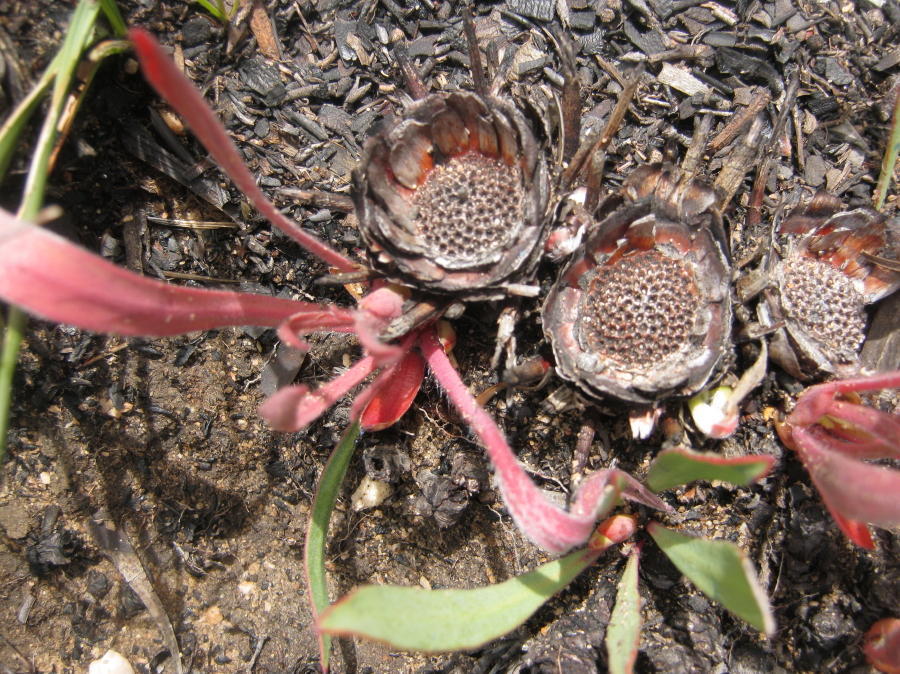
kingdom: Plantae
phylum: Tracheophyta
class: Magnoliopsida
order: Proteales
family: Proteaceae
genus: Protea
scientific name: Protea vogtsiae
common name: Kouga sugarbush
